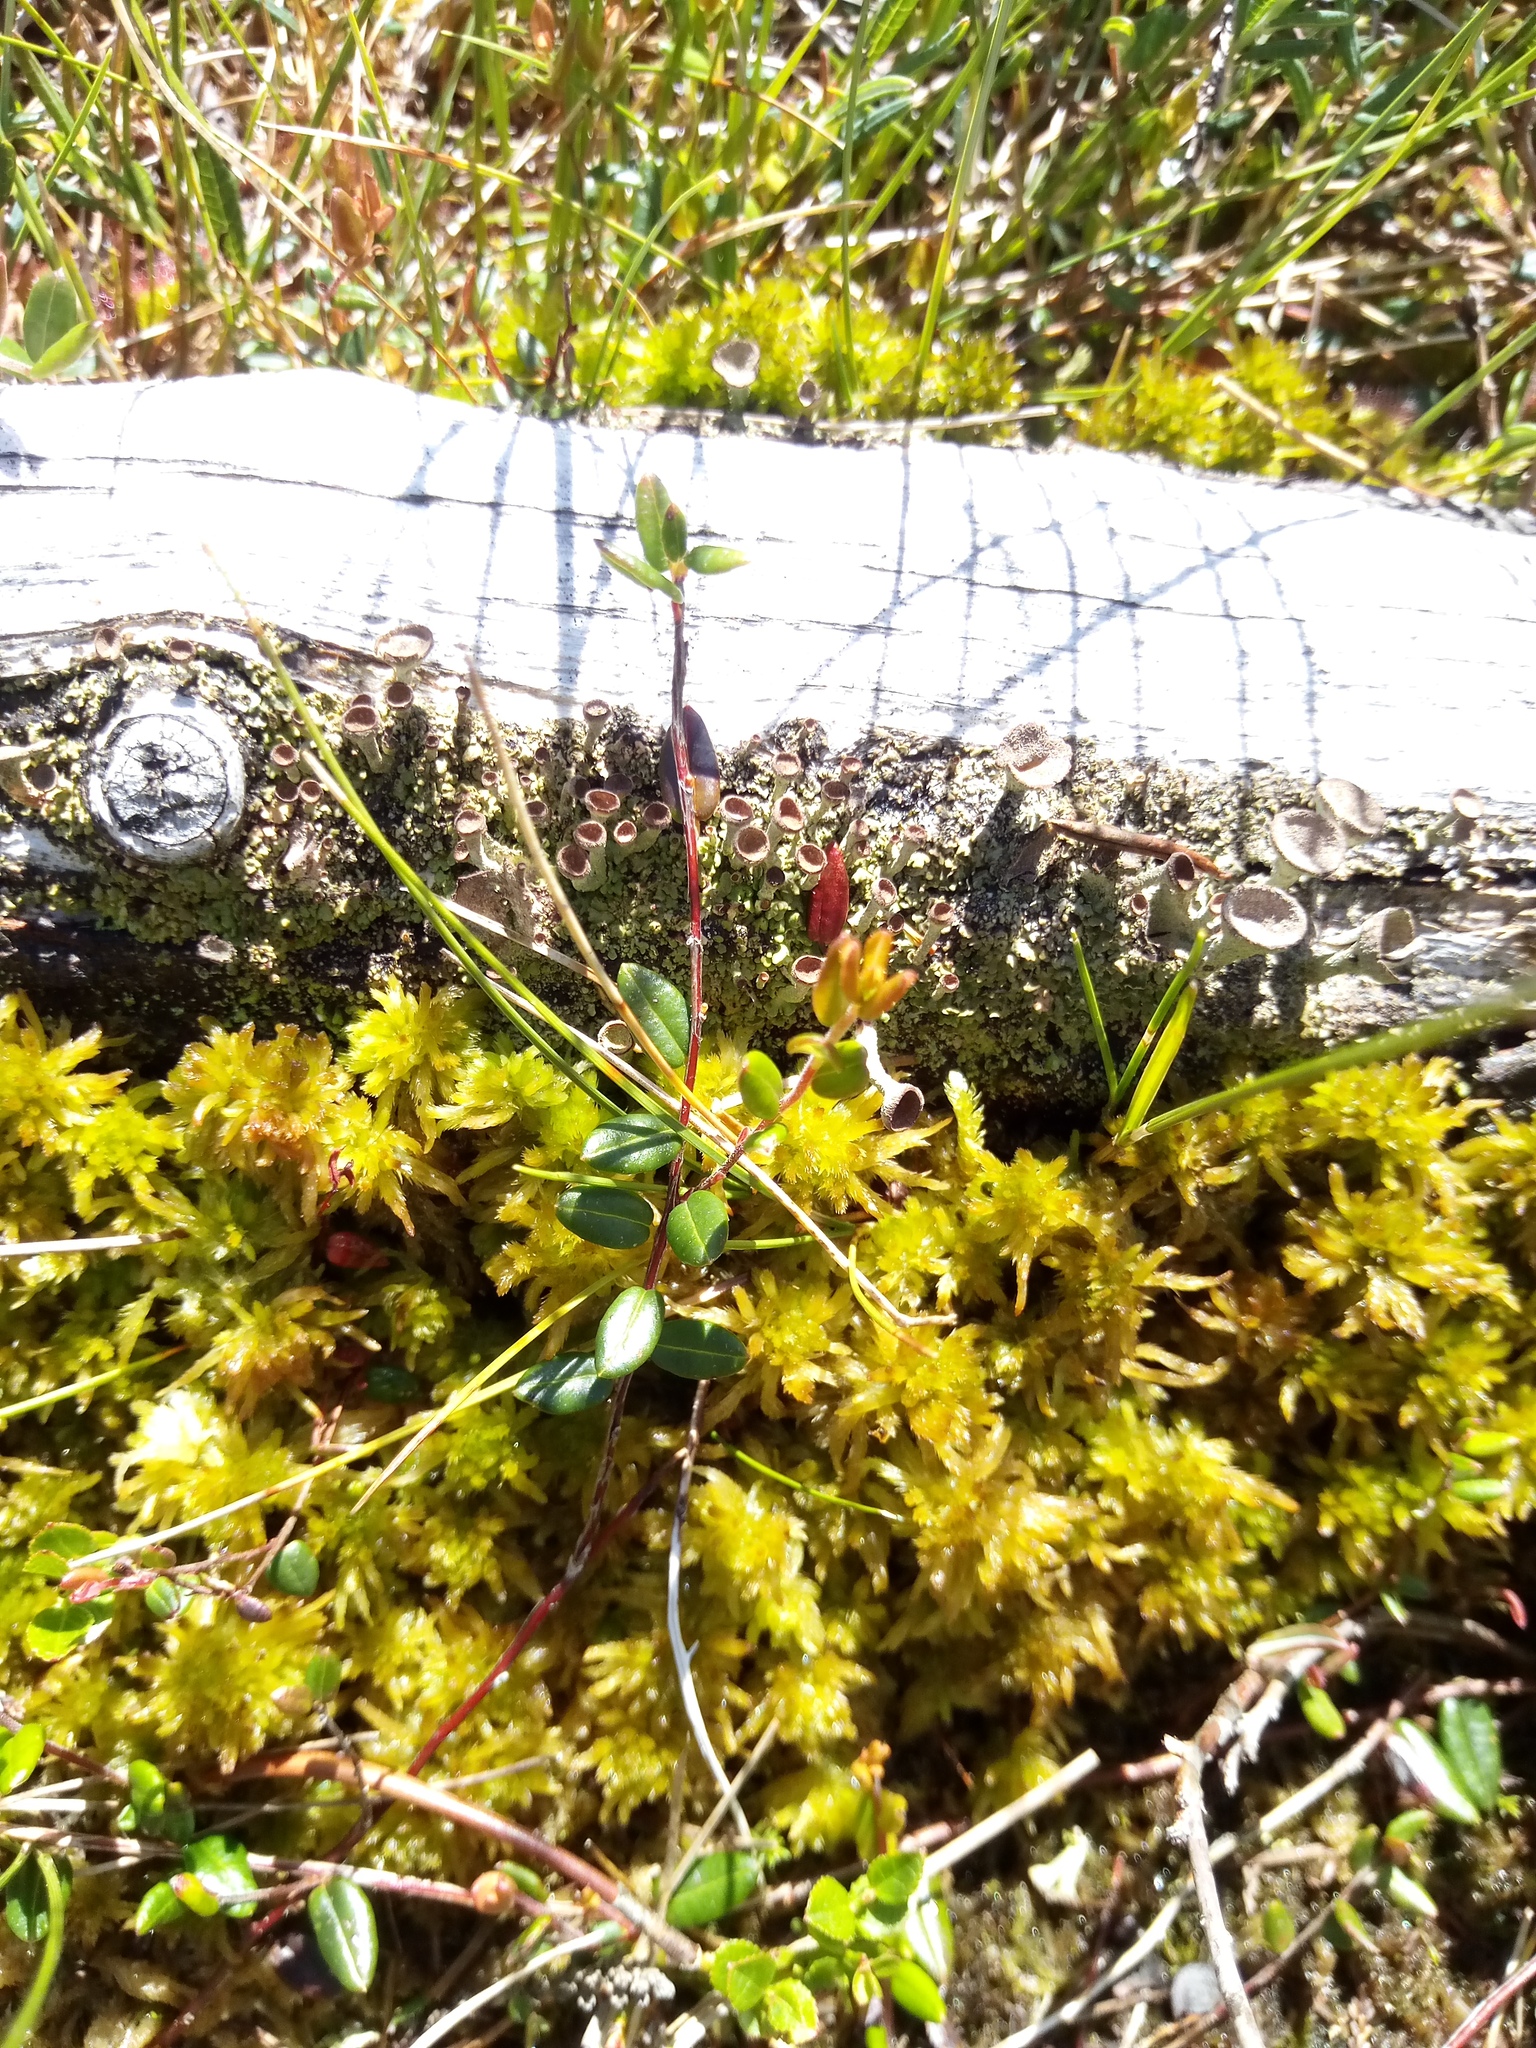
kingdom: Plantae
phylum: Tracheophyta
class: Magnoliopsida
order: Ericales
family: Ericaceae
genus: Vaccinium
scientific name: Vaccinium oxycoccos
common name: Cranberry
